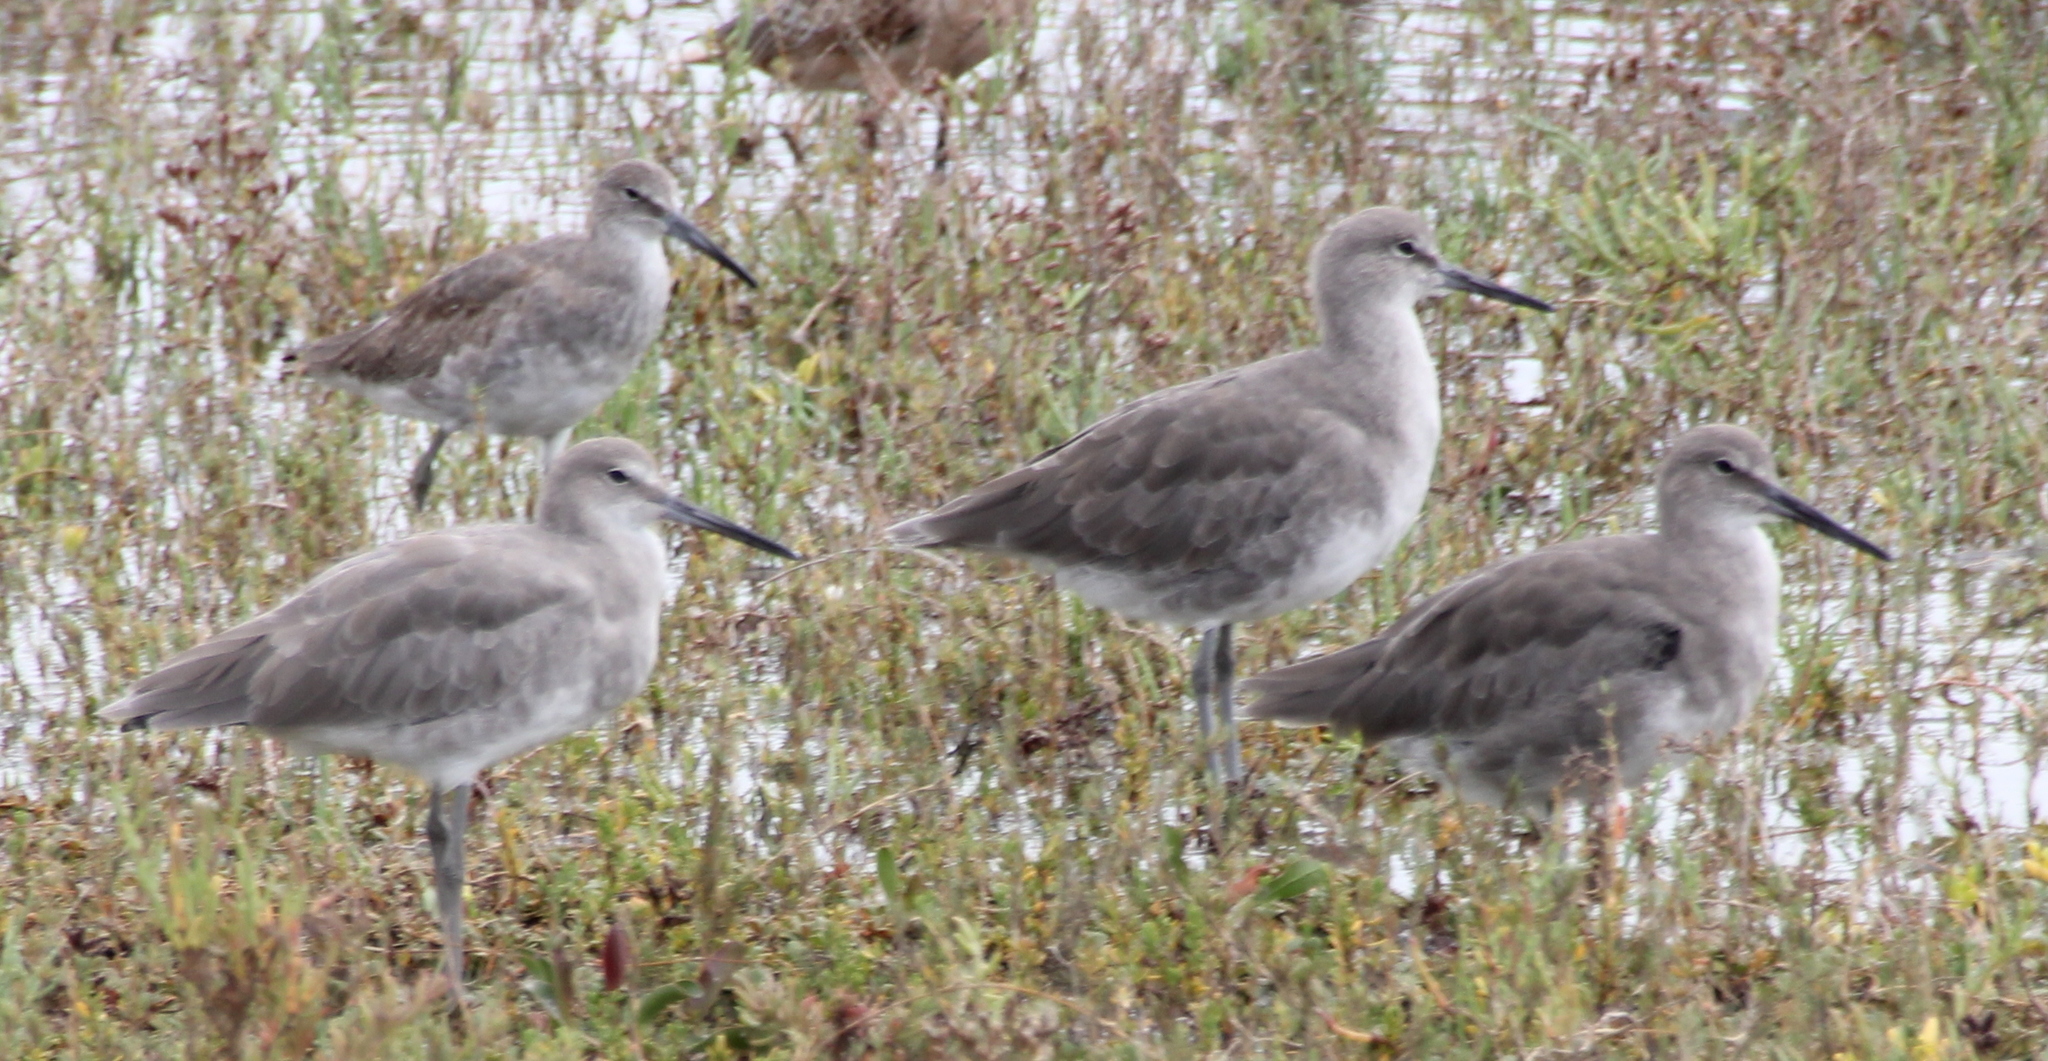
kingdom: Animalia
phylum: Chordata
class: Aves
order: Charadriiformes
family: Scolopacidae
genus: Tringa
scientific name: Tringa semipalmata
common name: Willet
